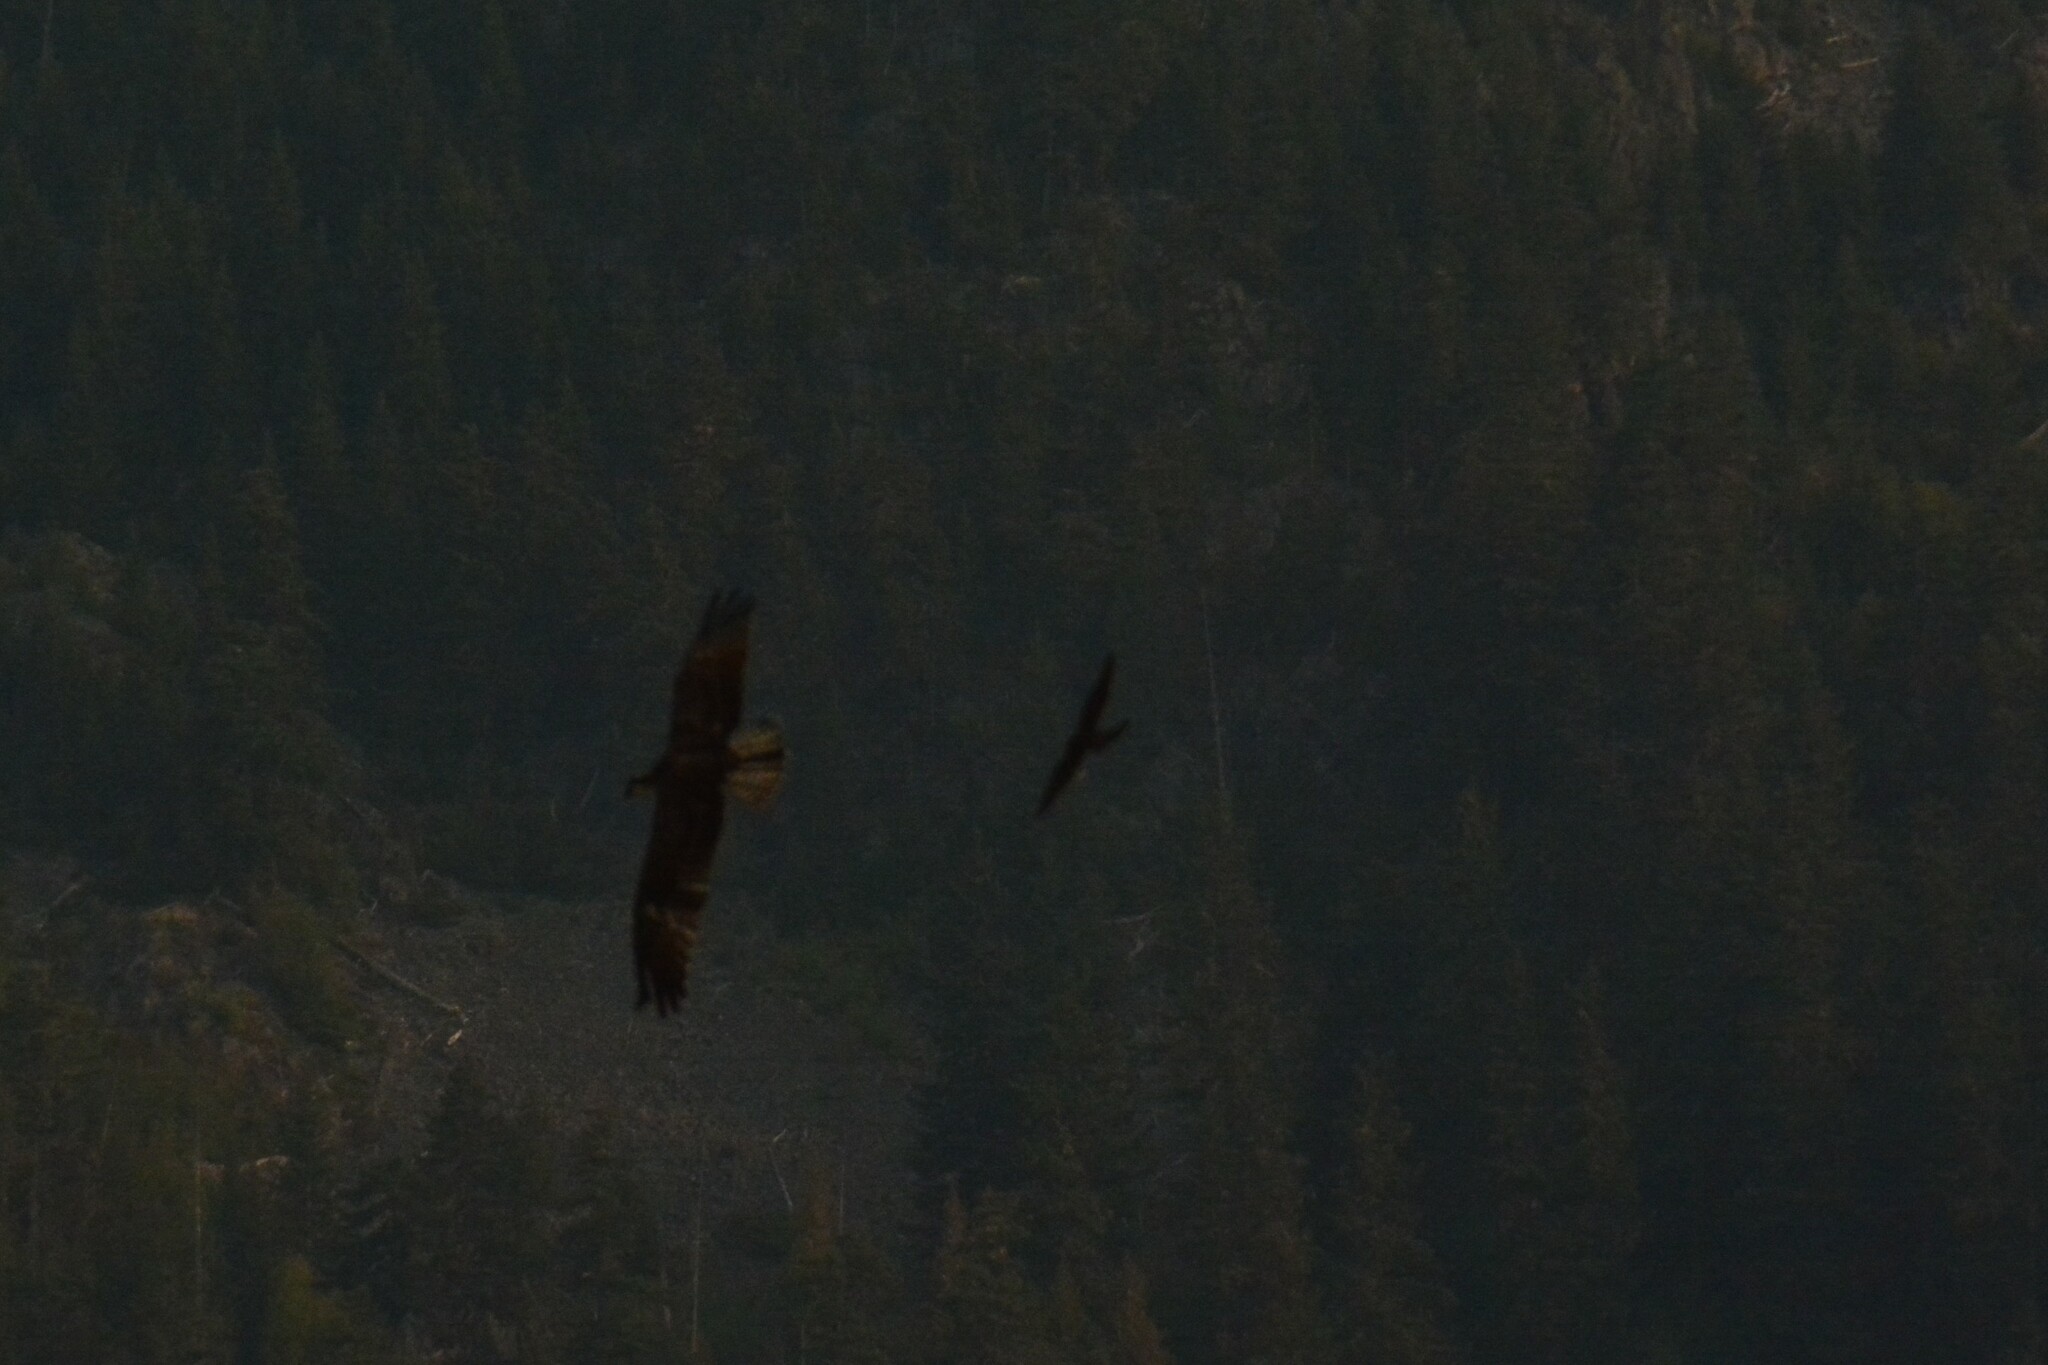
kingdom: Animalia
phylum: Chordata
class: Aves
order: Falconiformes
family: Falconidae
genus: Falco
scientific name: Falco columbarius
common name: Merlin
